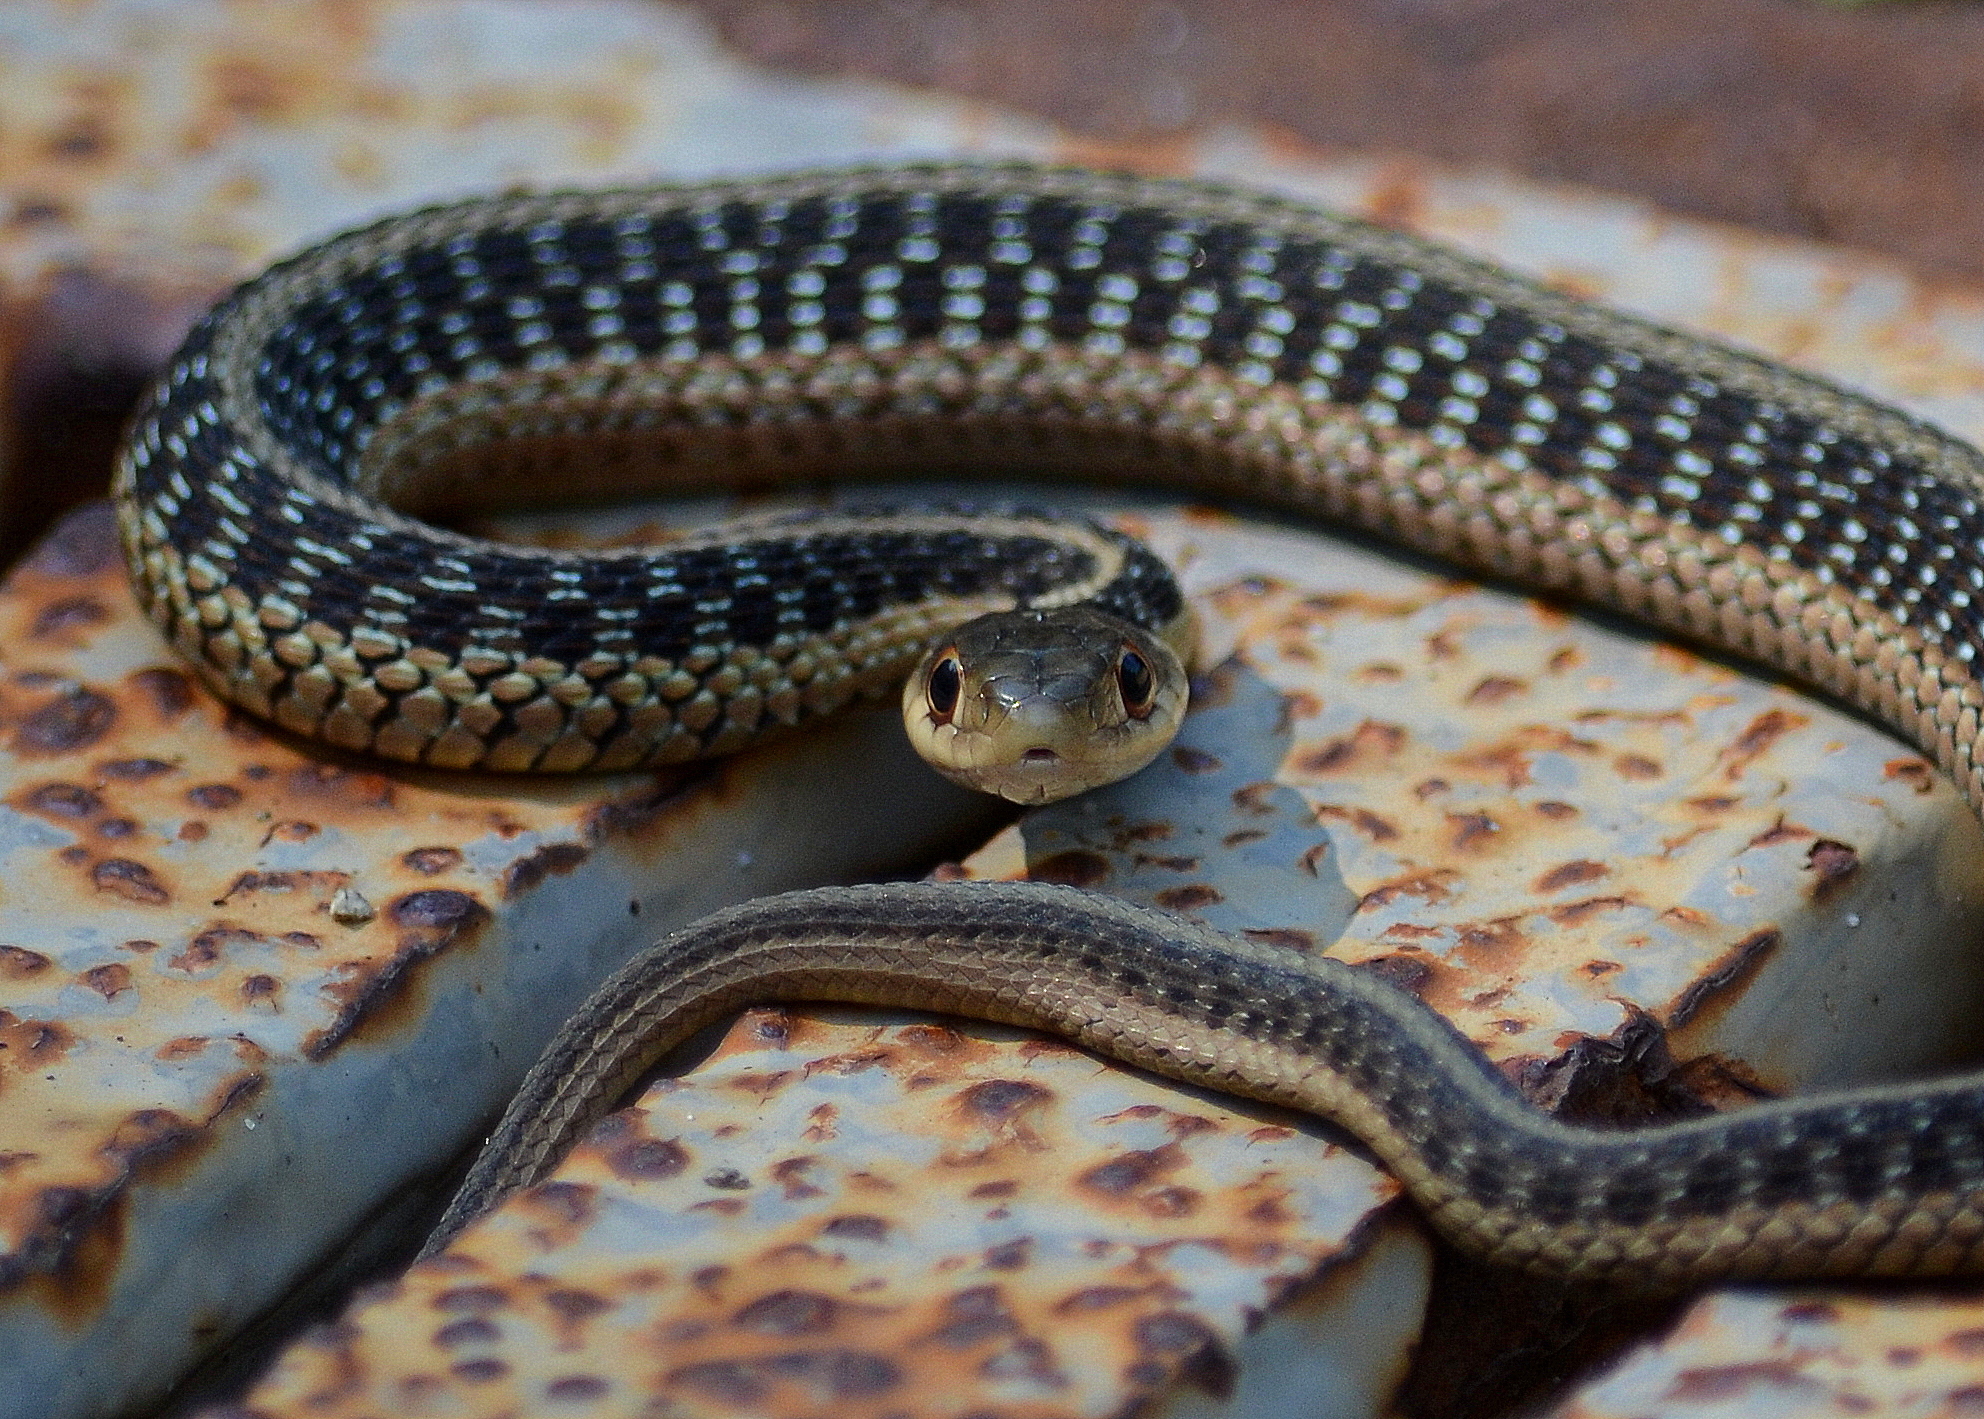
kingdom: Animalia
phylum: Chordata
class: Squamata
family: Colubridae
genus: Thamnophis
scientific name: Thamnophis sirtalis
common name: Common garter snake
